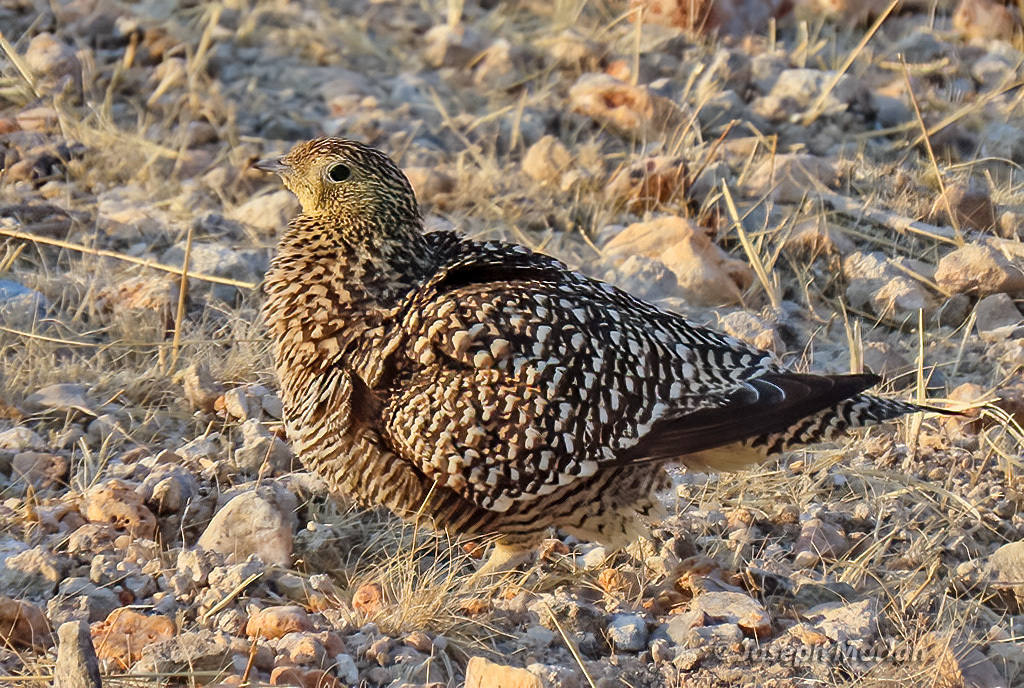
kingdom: Animalia
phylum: Chordata
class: Aves
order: Pteroclidiformes
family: Pteroclididae
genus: Pterocles
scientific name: Pterocles namaqua
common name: Namaqua sandgrouse
